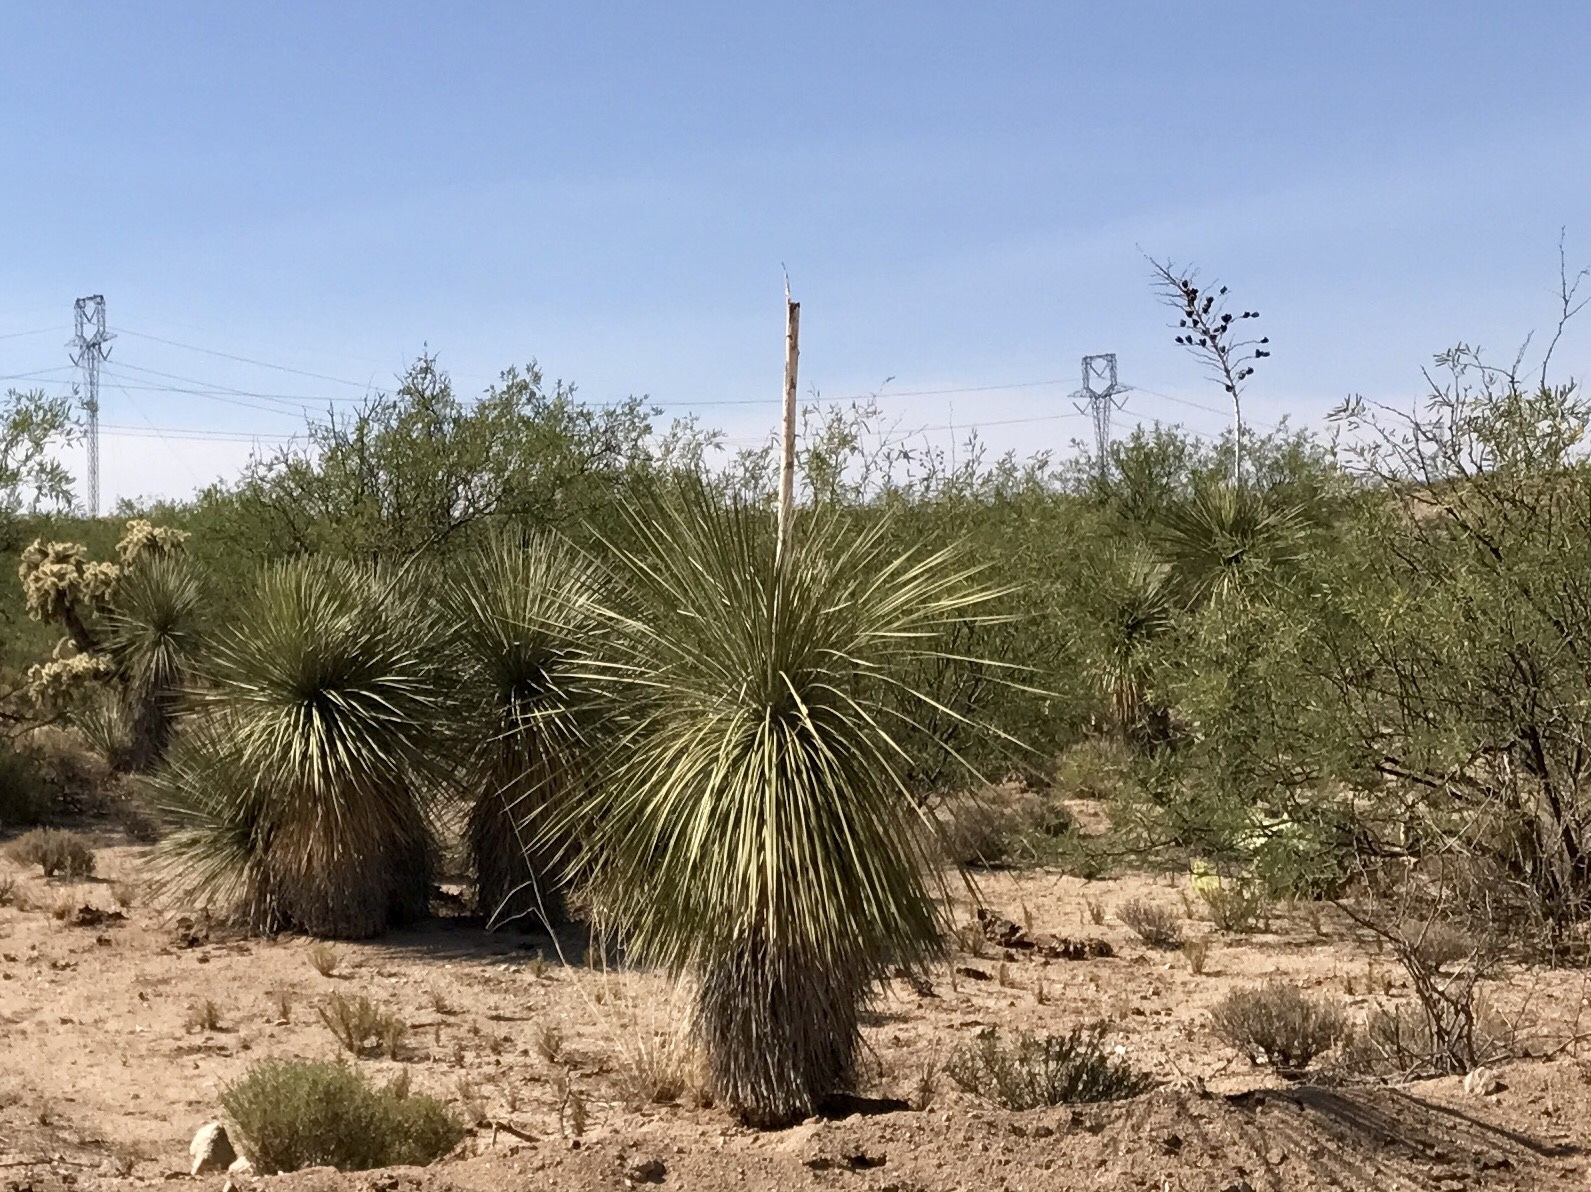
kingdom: Plantae
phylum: Tracheophyta
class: Liliopsida
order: Asparagales
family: Asparagaceae
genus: Yucca
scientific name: Yucca elata
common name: Palmella
